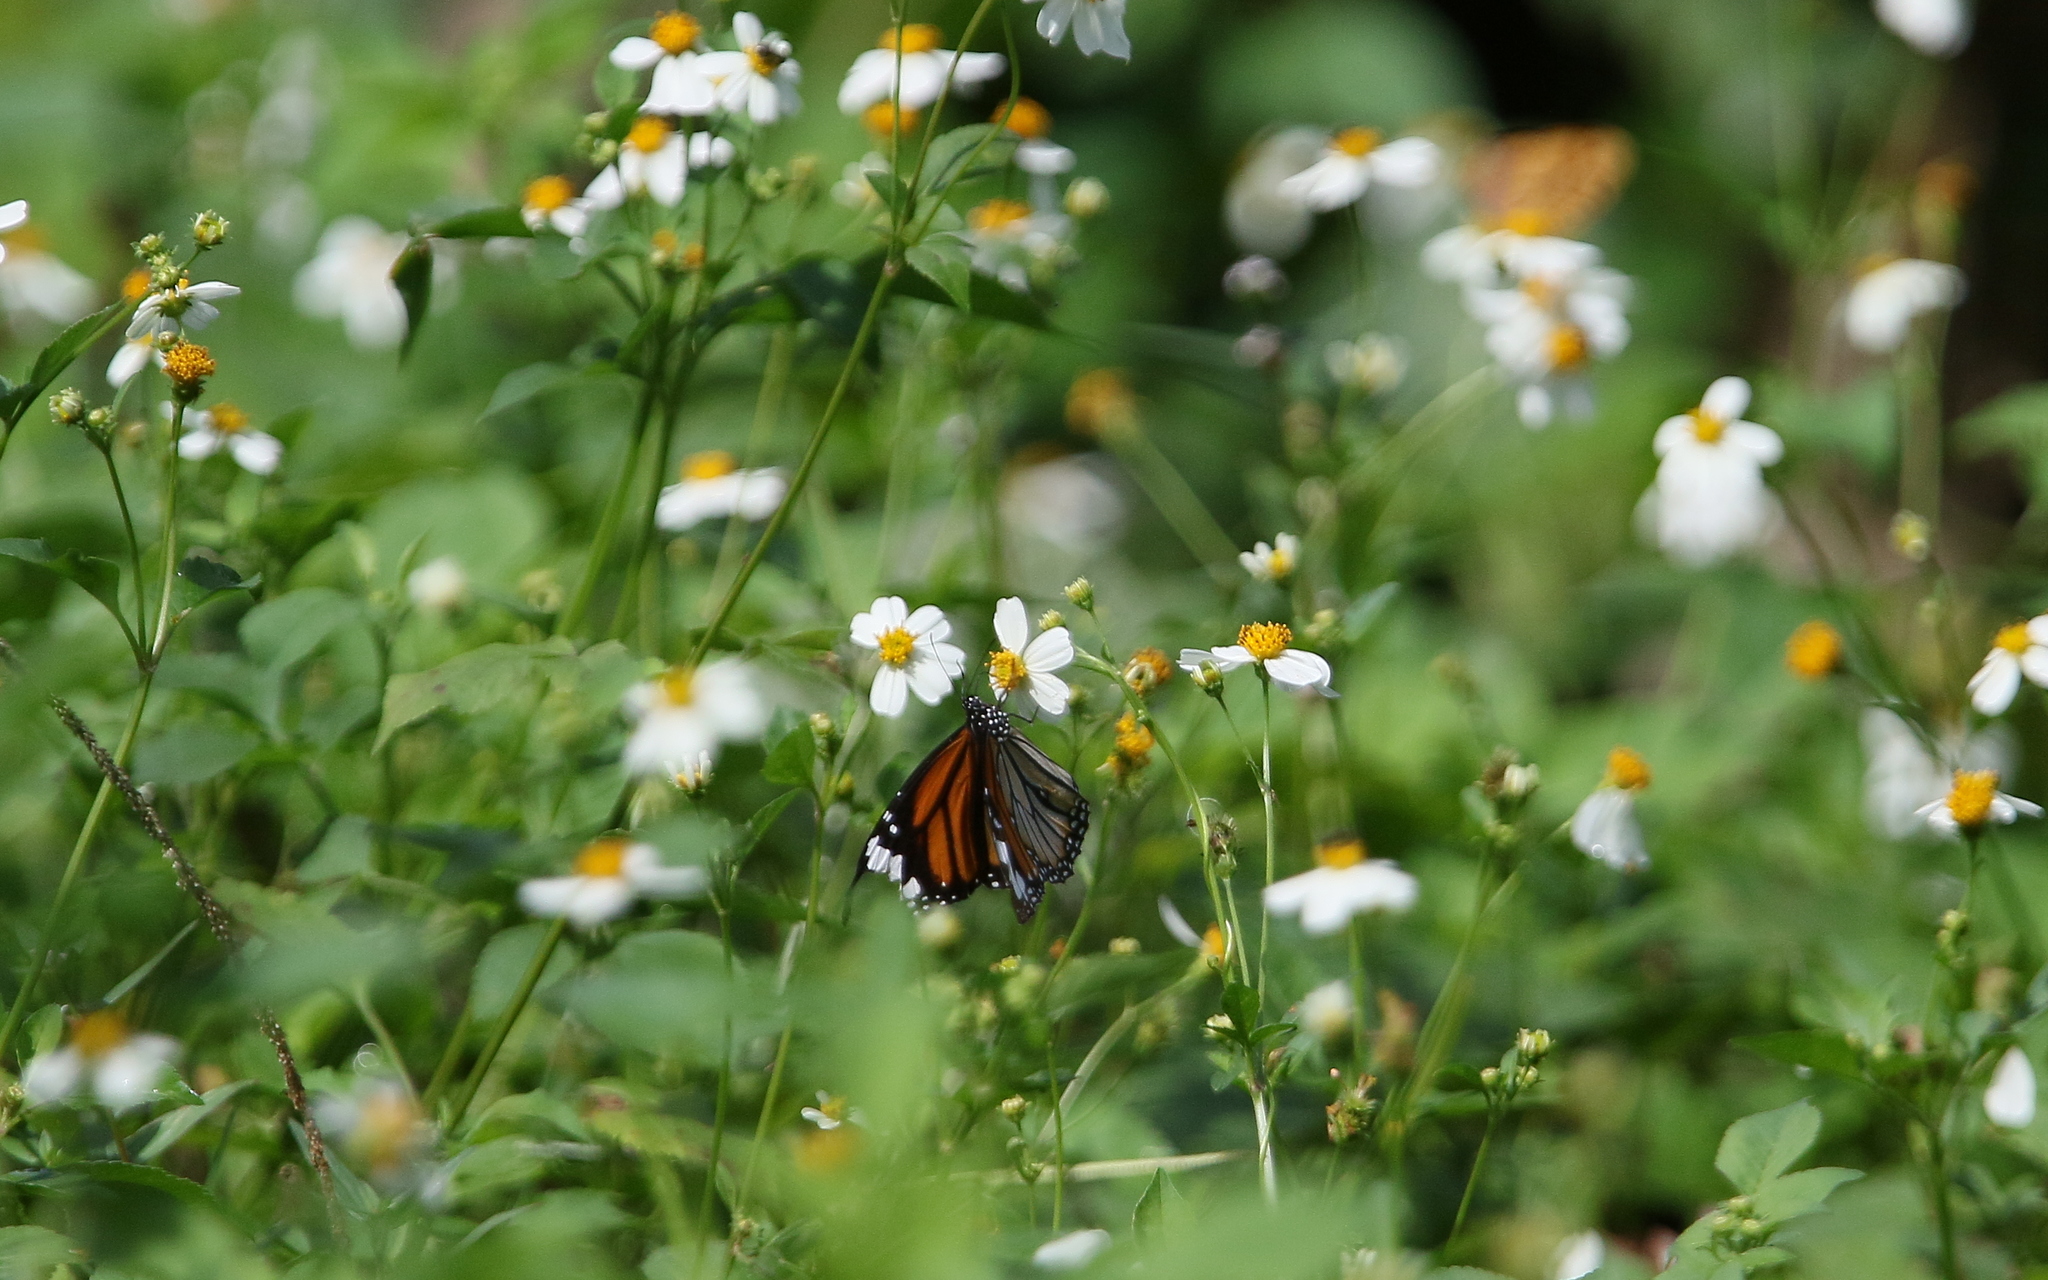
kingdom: Animalia
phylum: Arthropoda
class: Insecta
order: Lepidoptera
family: Nymphalidae
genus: Danaus
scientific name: Danaus genutia
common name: Common tiger butterfly
